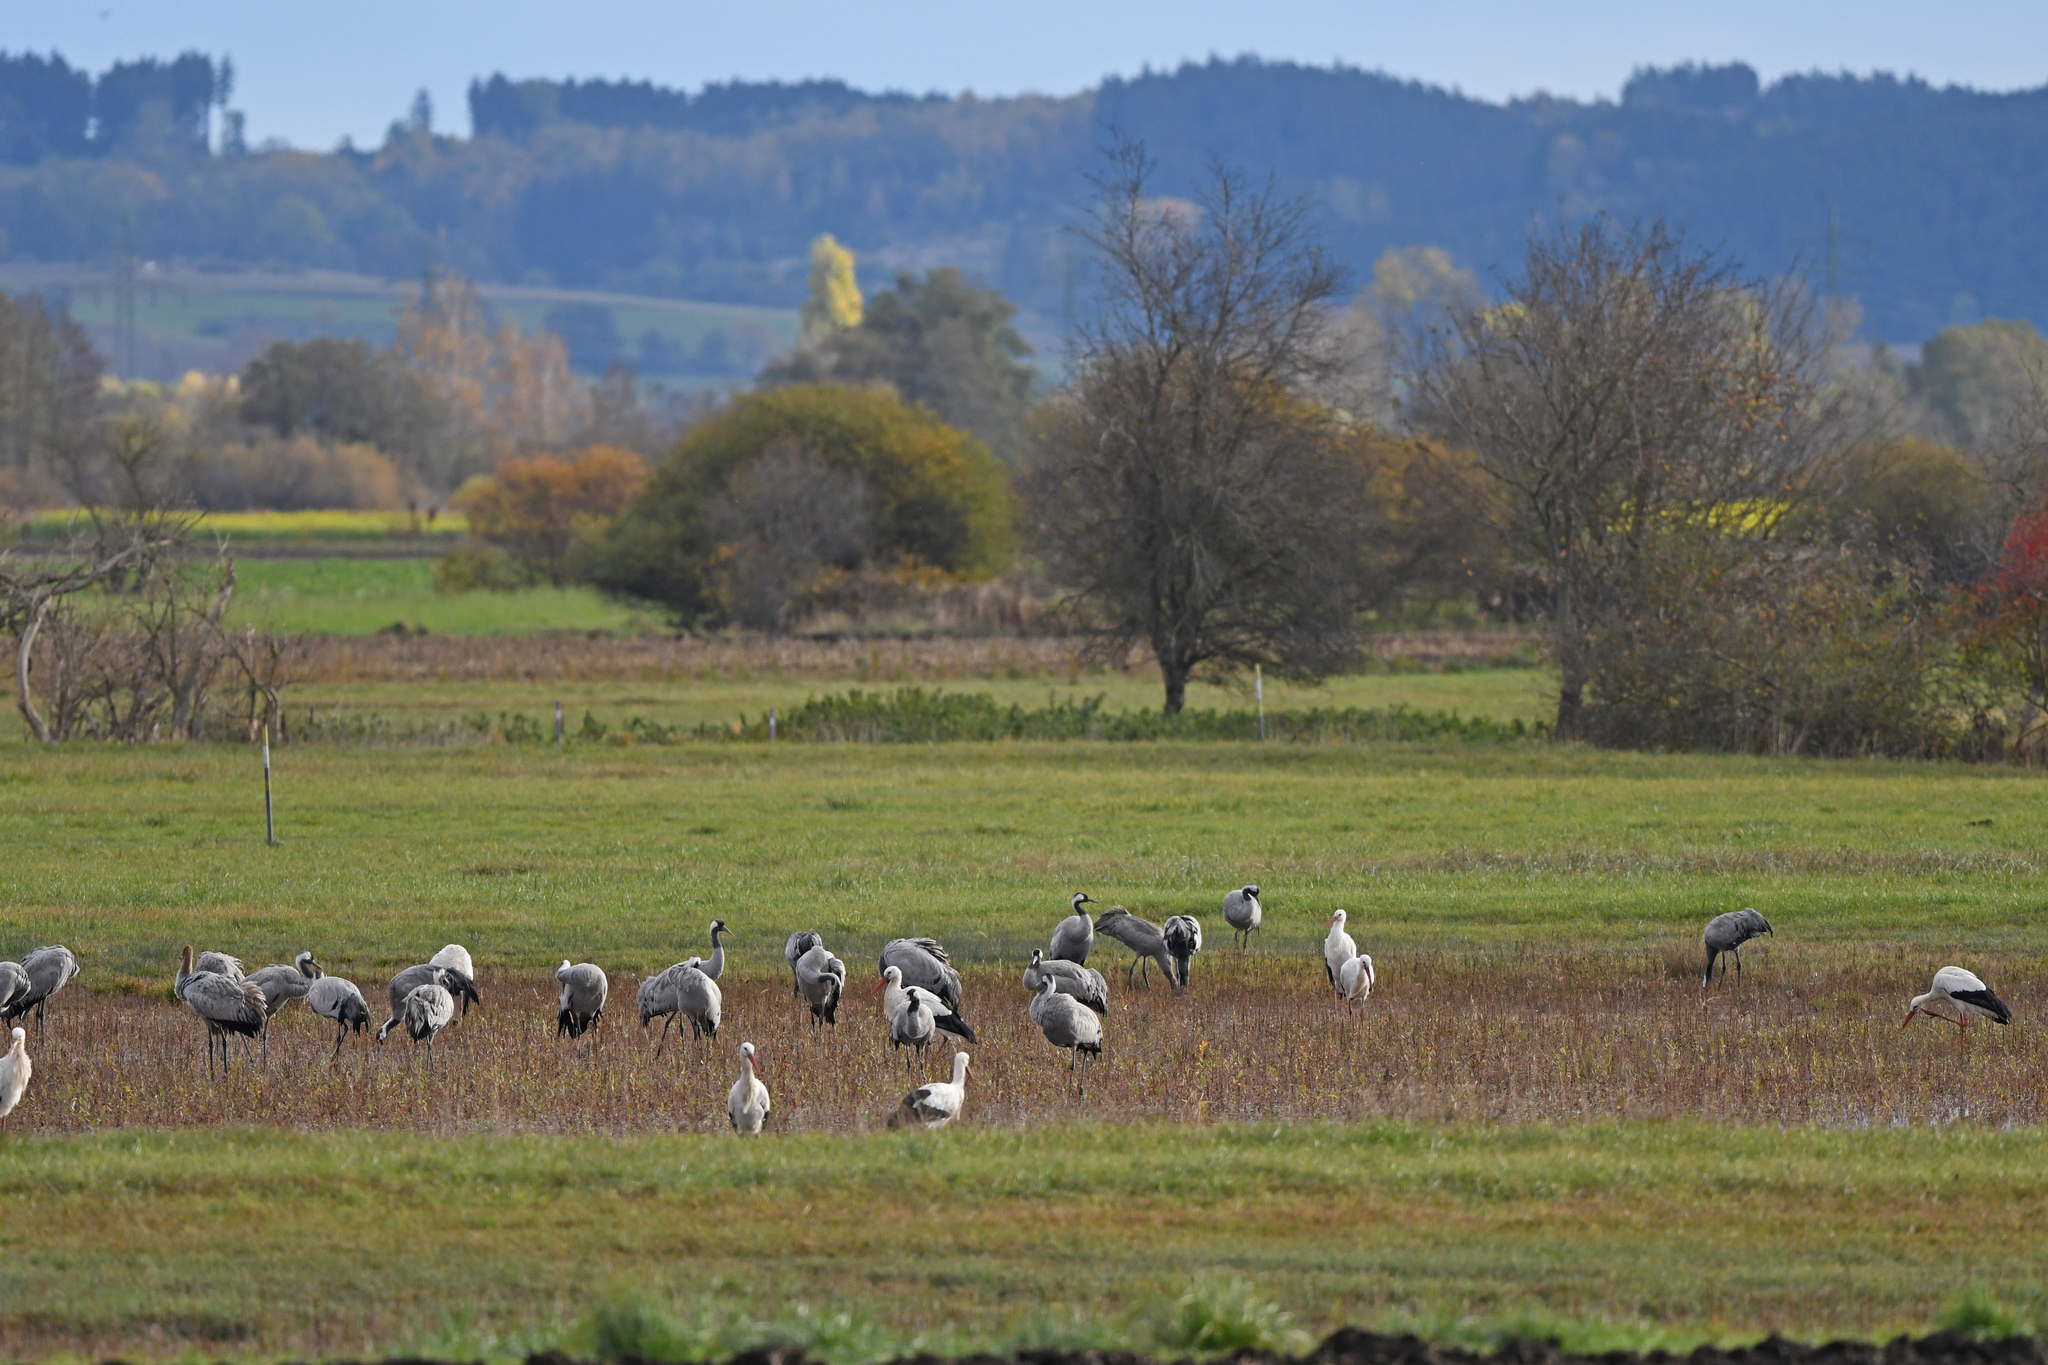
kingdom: Animalia
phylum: Chordata
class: Aves
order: Gruiformes
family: Gruidae
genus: Grus
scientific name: Grus grus
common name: Common crane
